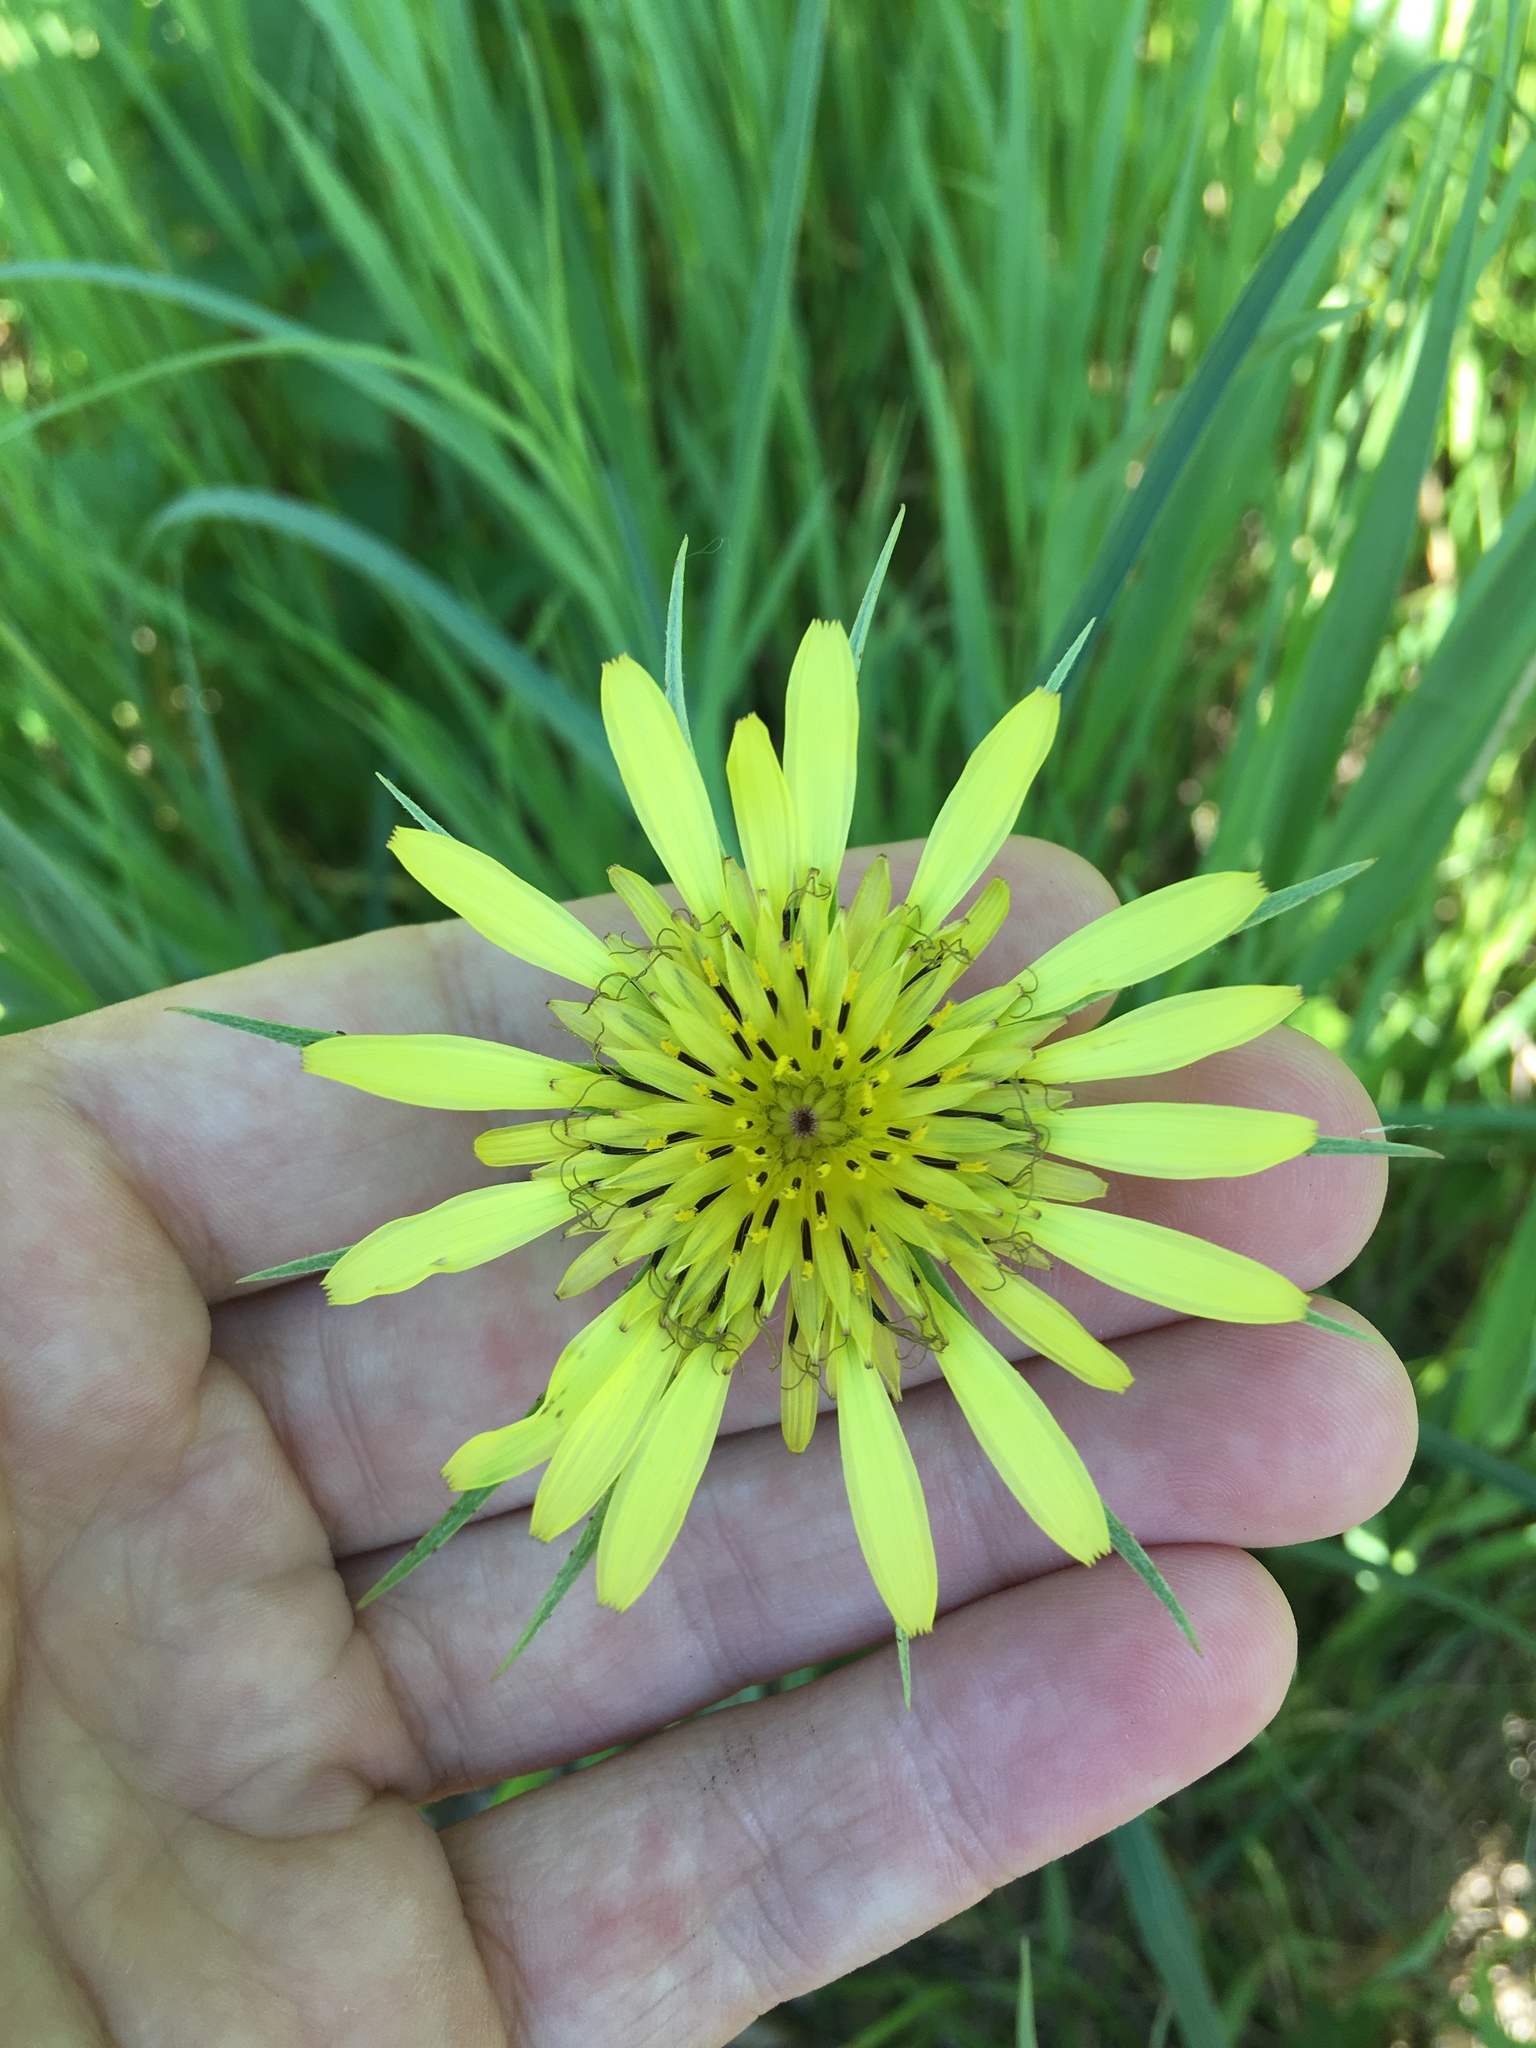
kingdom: Plantae
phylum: Tracheophyta
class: Magnoliopsida
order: Asterales
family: Asteraceae
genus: Tragopogon
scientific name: Tragopogon dubius
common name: Yellow salsify
